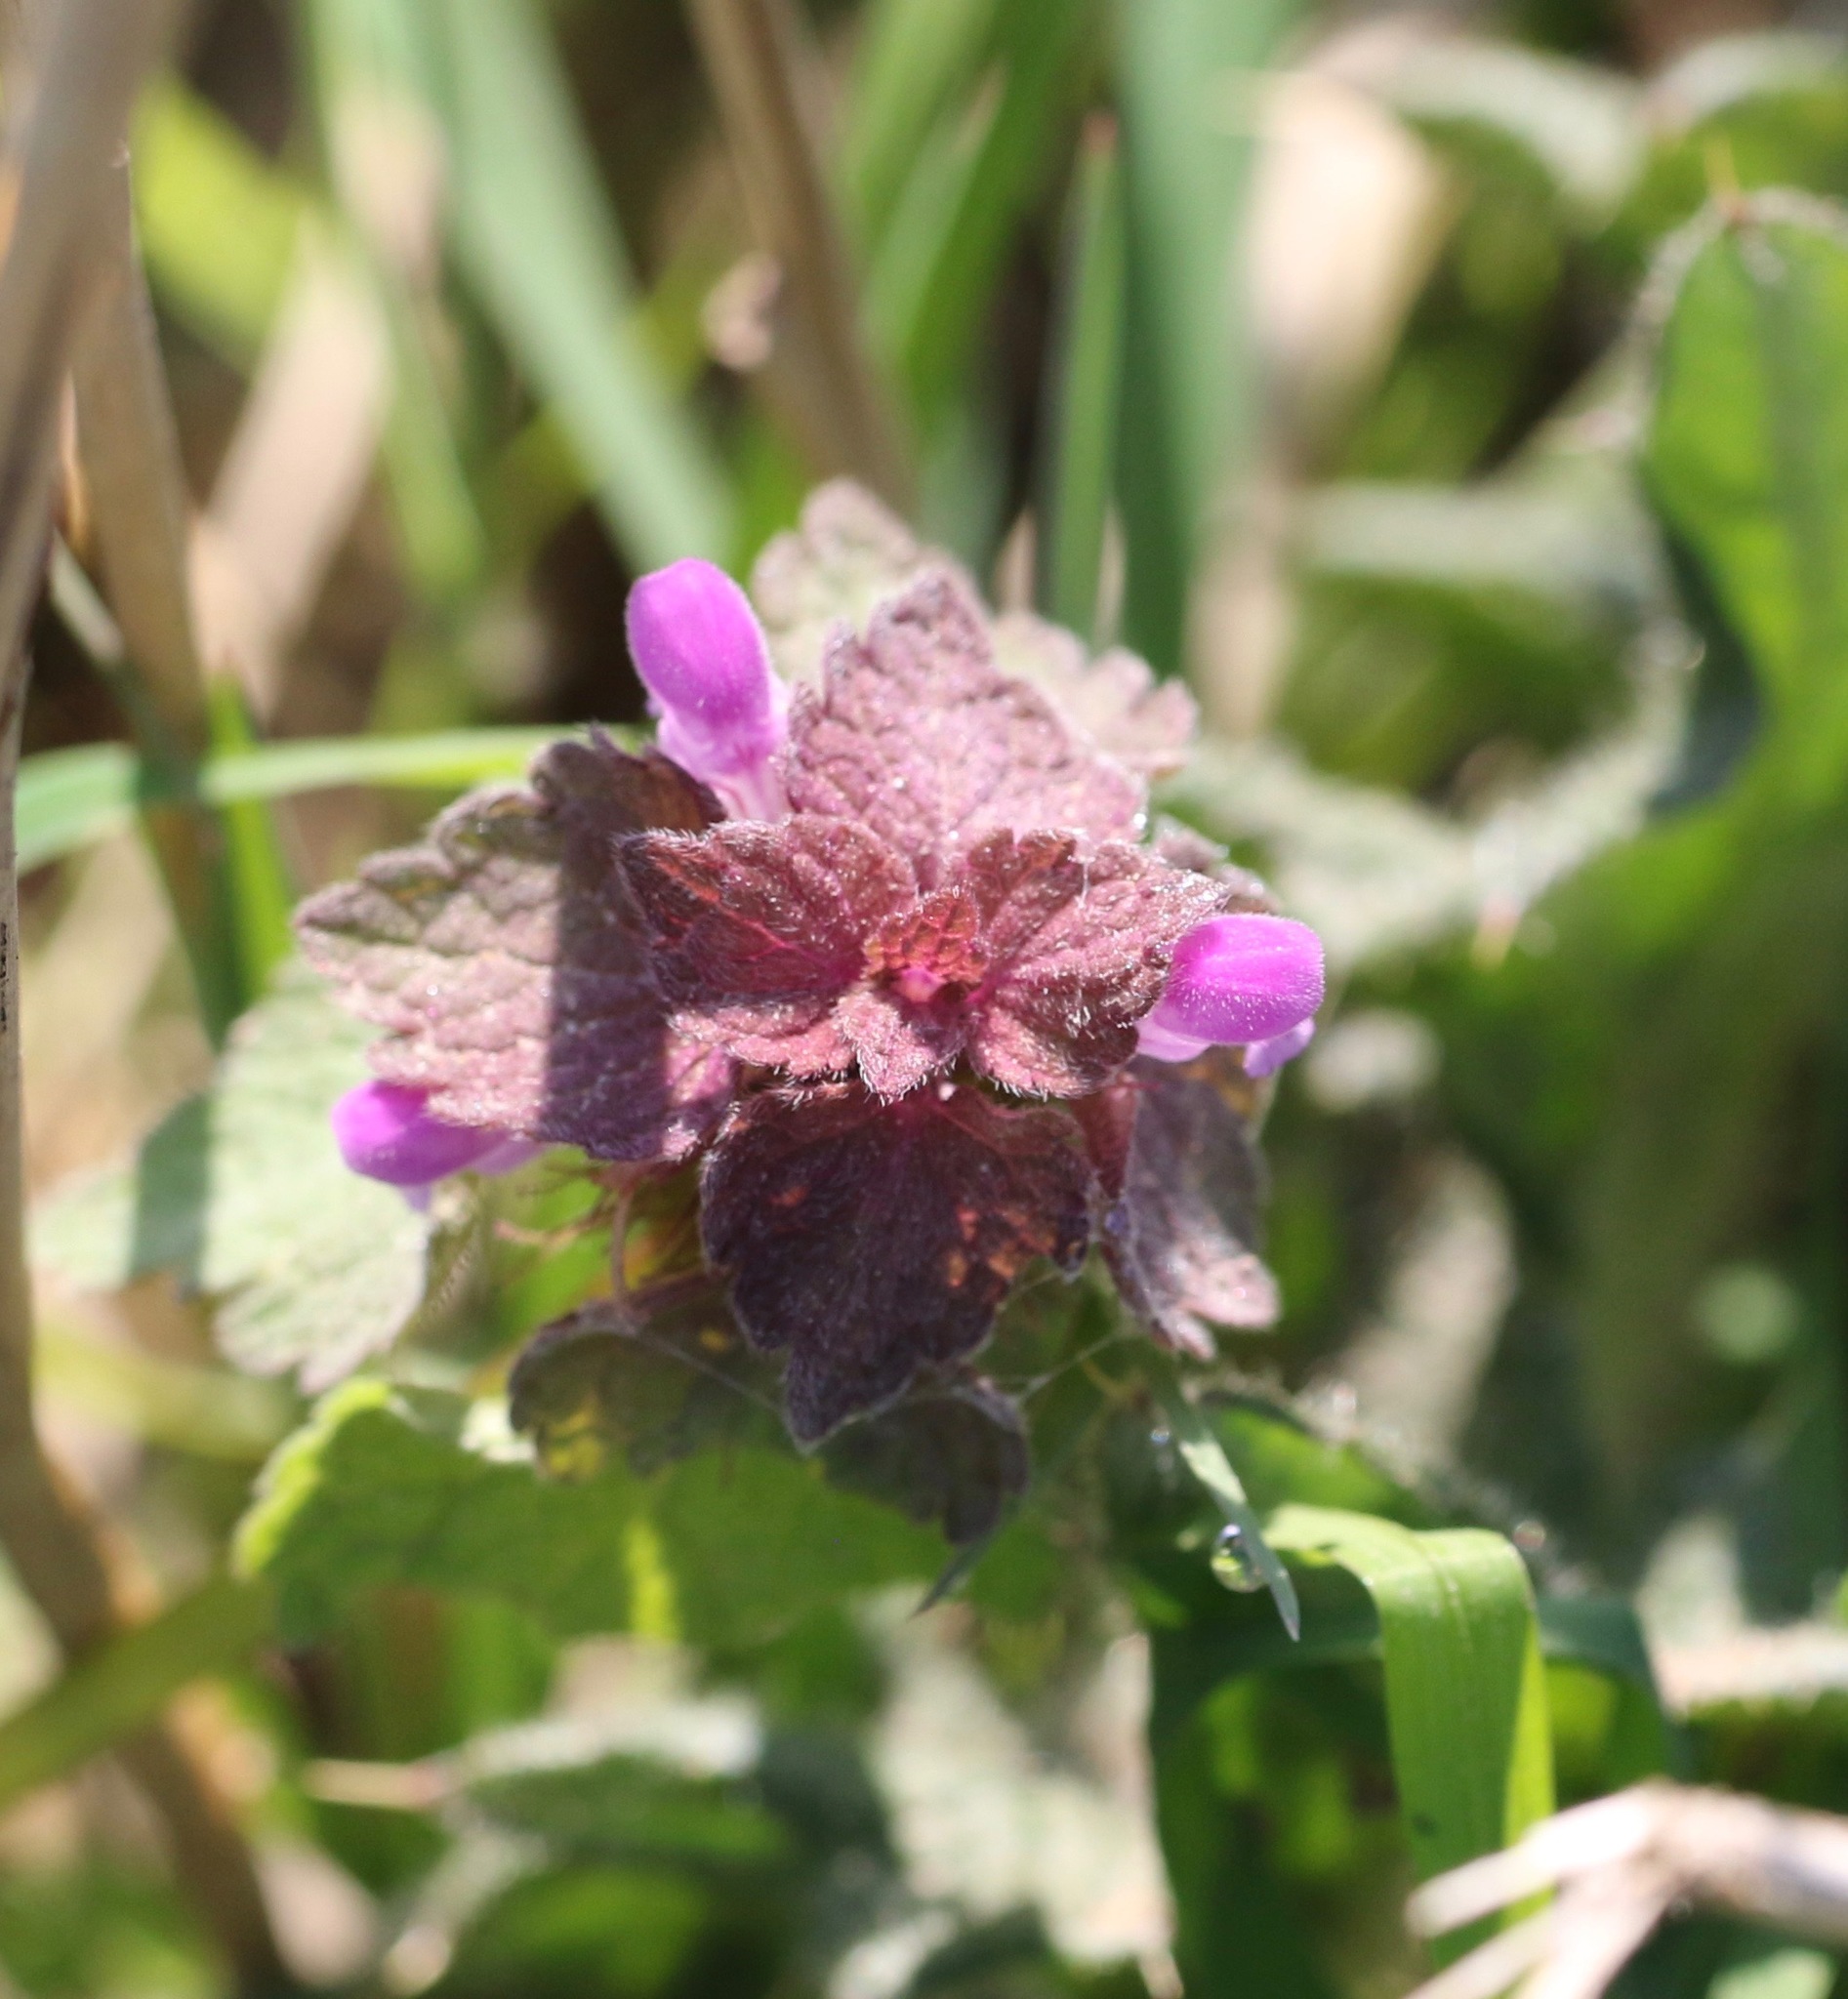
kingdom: Plantae
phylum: Tracheophyta
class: Magnoliopsida
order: Lamiales
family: Lamiaceae
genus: Lamium
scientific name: Lamium purpureum
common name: Red dead-nettle
